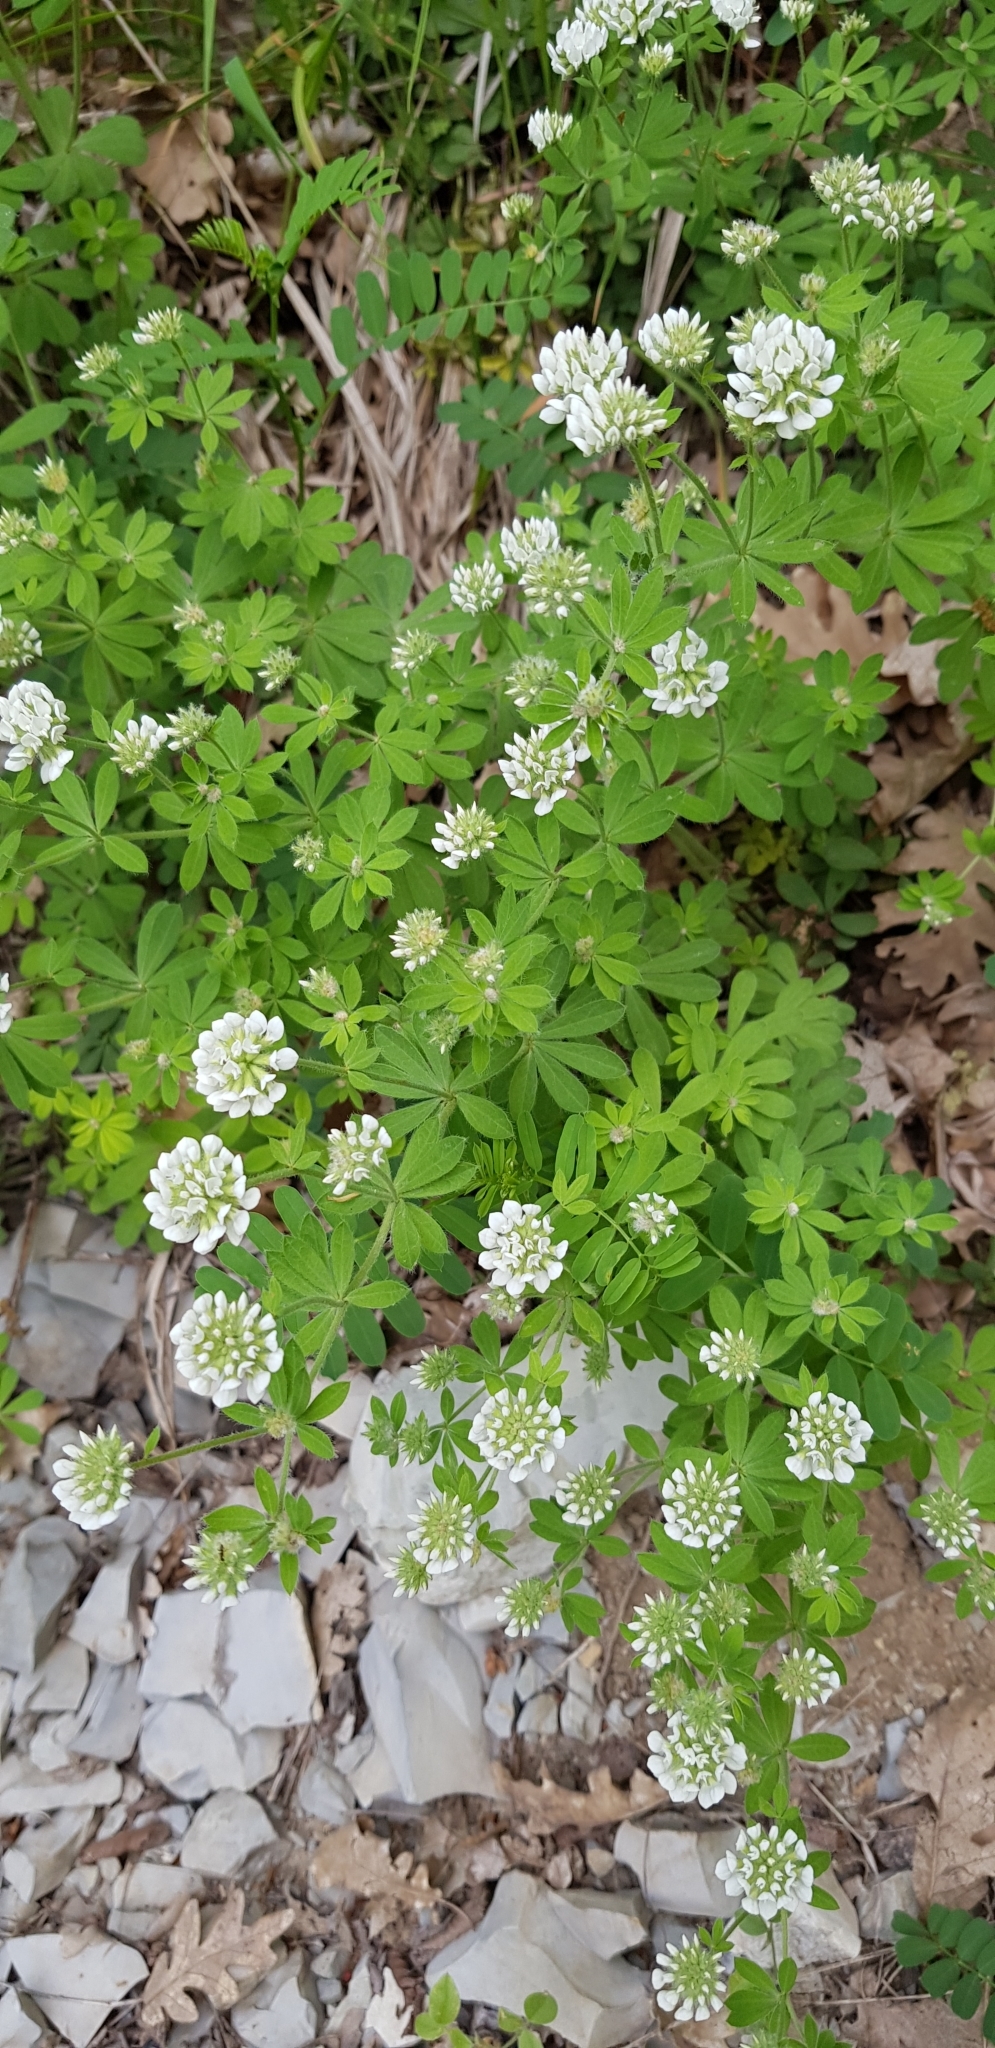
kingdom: Plantae
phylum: Tracheophyta
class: Magnoliopsida
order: Fabales
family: Fabaceae
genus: Lotus
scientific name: Lotus herbaceus
